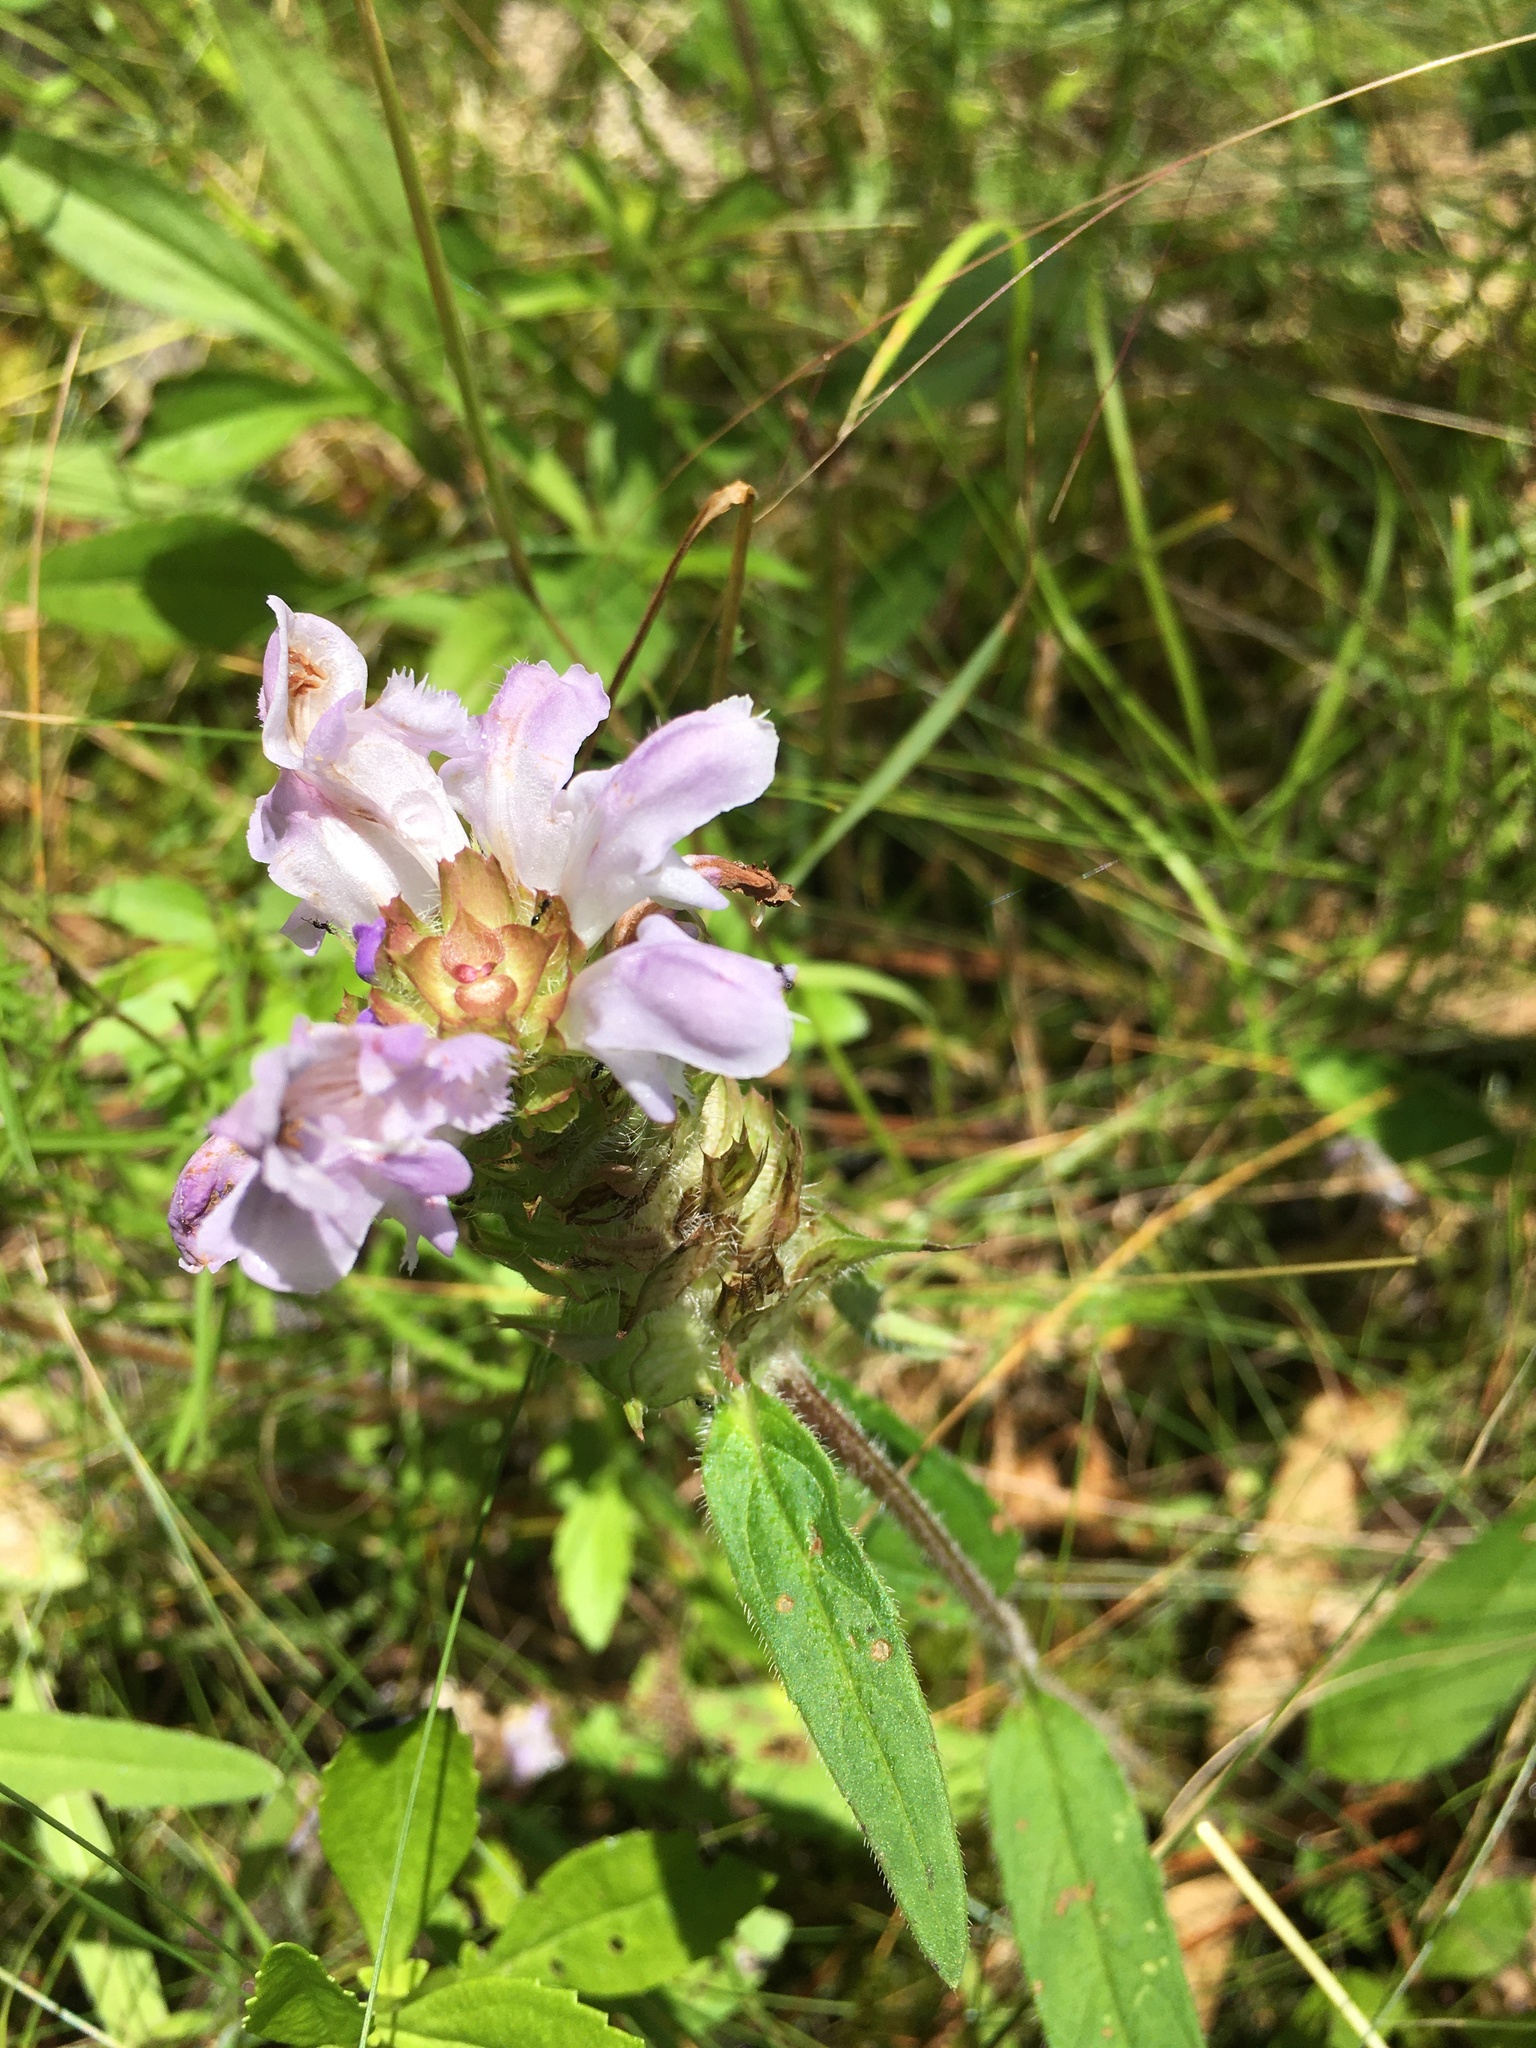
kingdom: Plantae
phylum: Tracheophyta
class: Magnoliopsida
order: Lamiales
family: Lamiaceae
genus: Prunella
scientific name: Prunella vulgaris
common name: Heal-all
